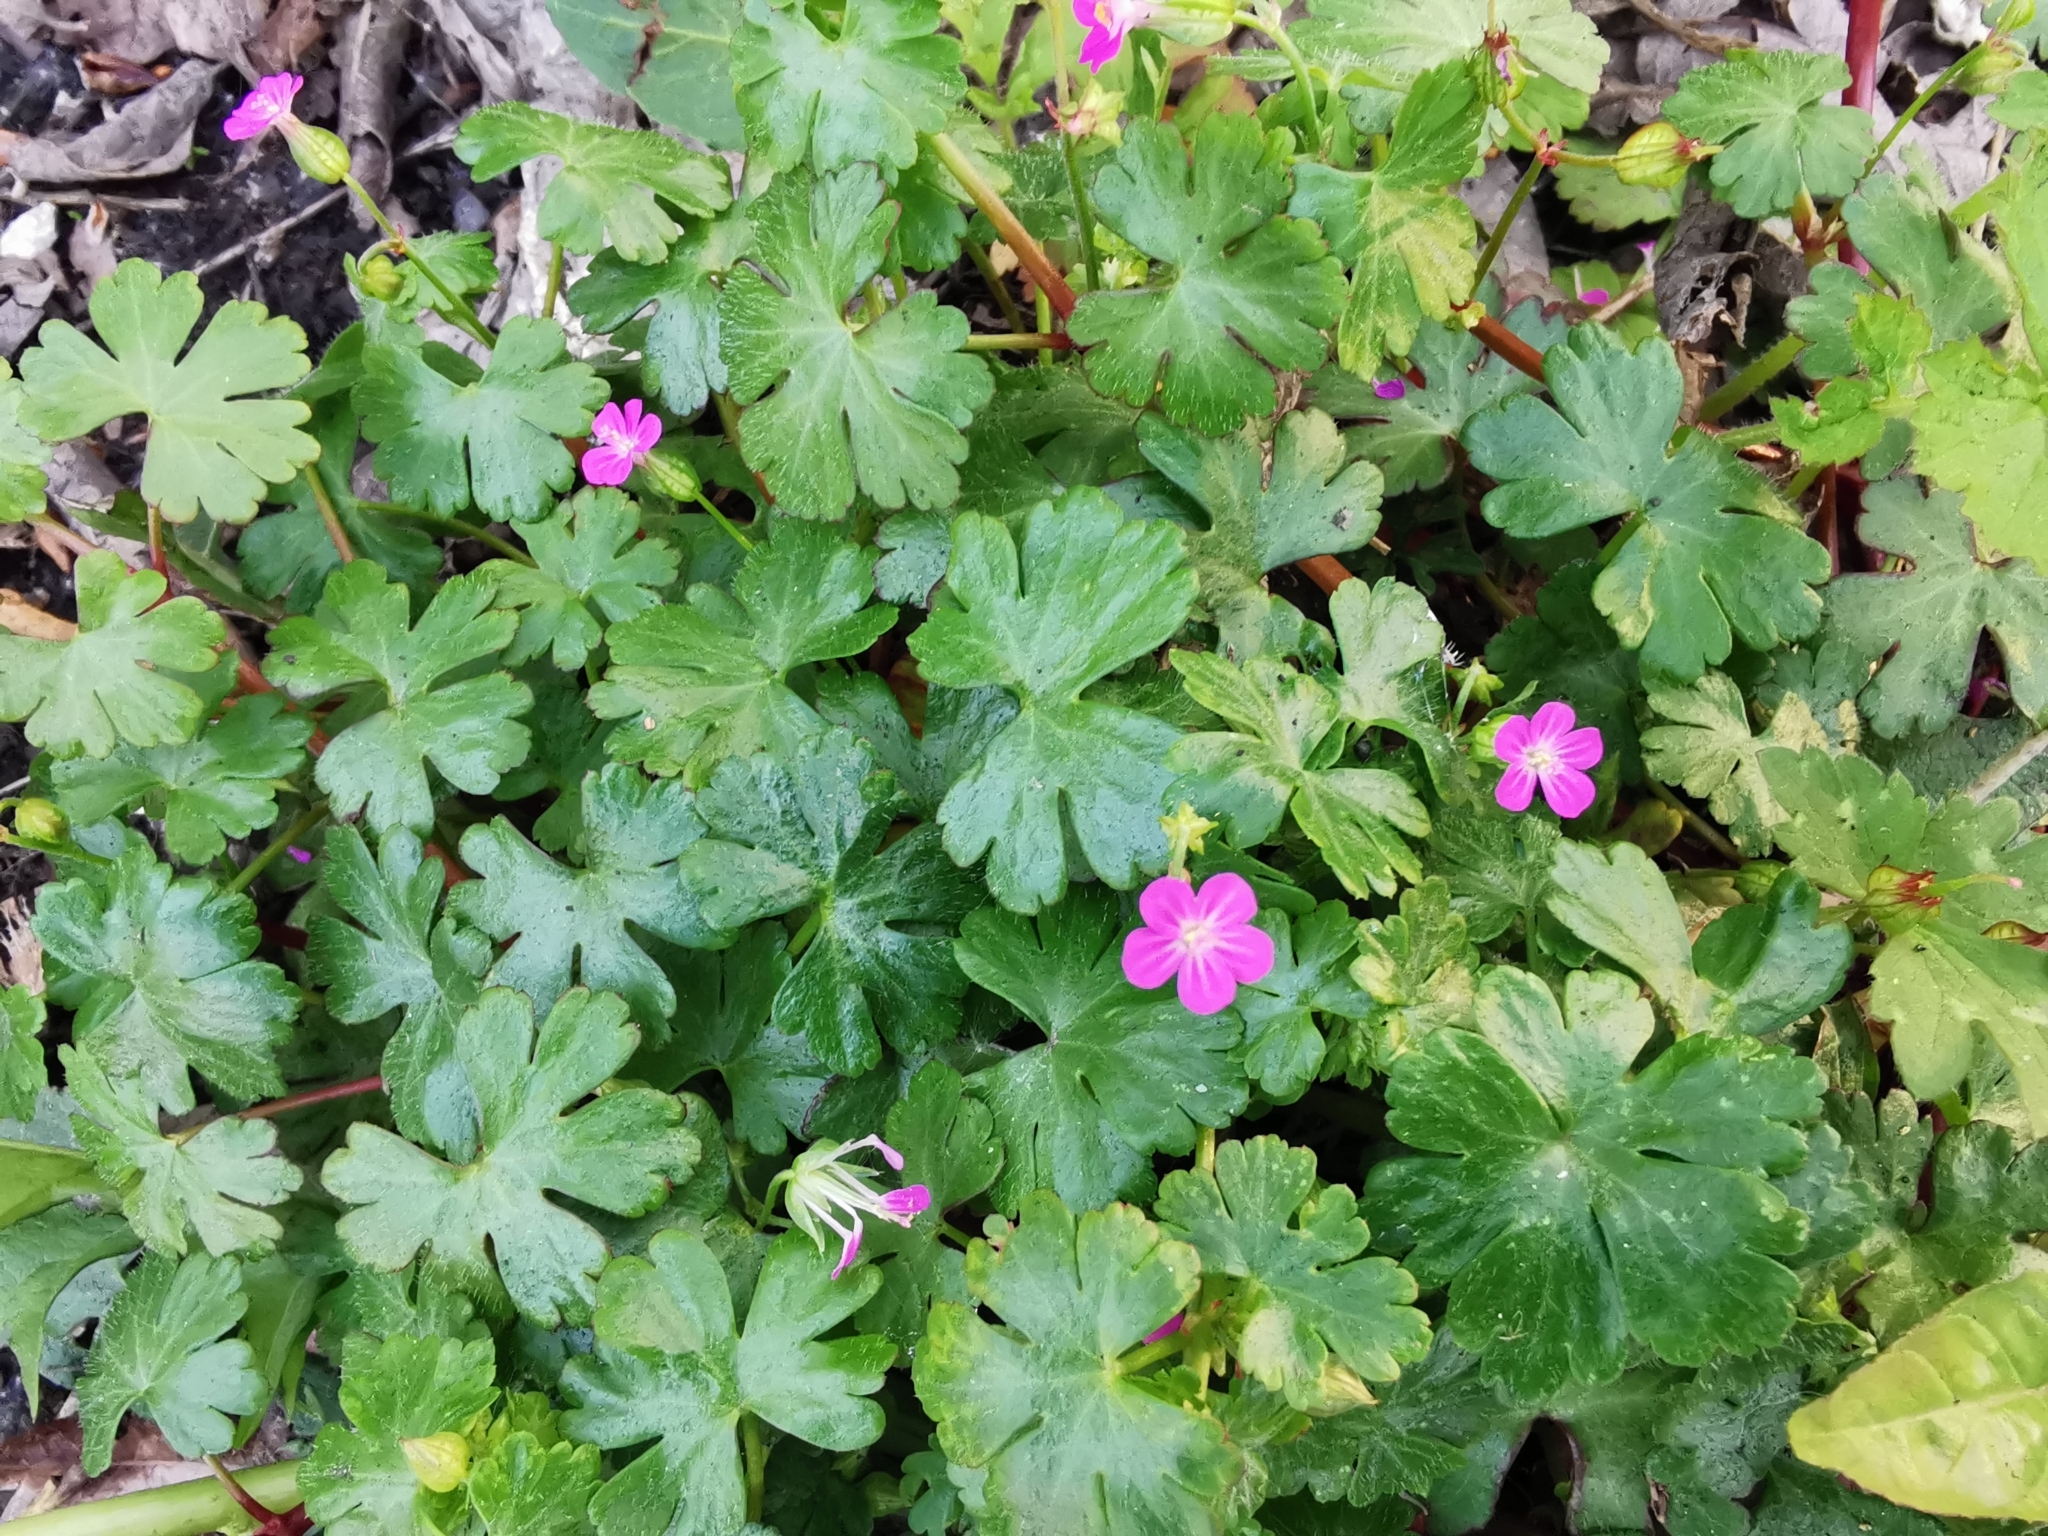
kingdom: Plantae
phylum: Tracheophyta
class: Magnoliopsida
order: Geraniales
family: Geraniaceae
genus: Geranium
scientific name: Geranium lucidum
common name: Shining crane's-bill
